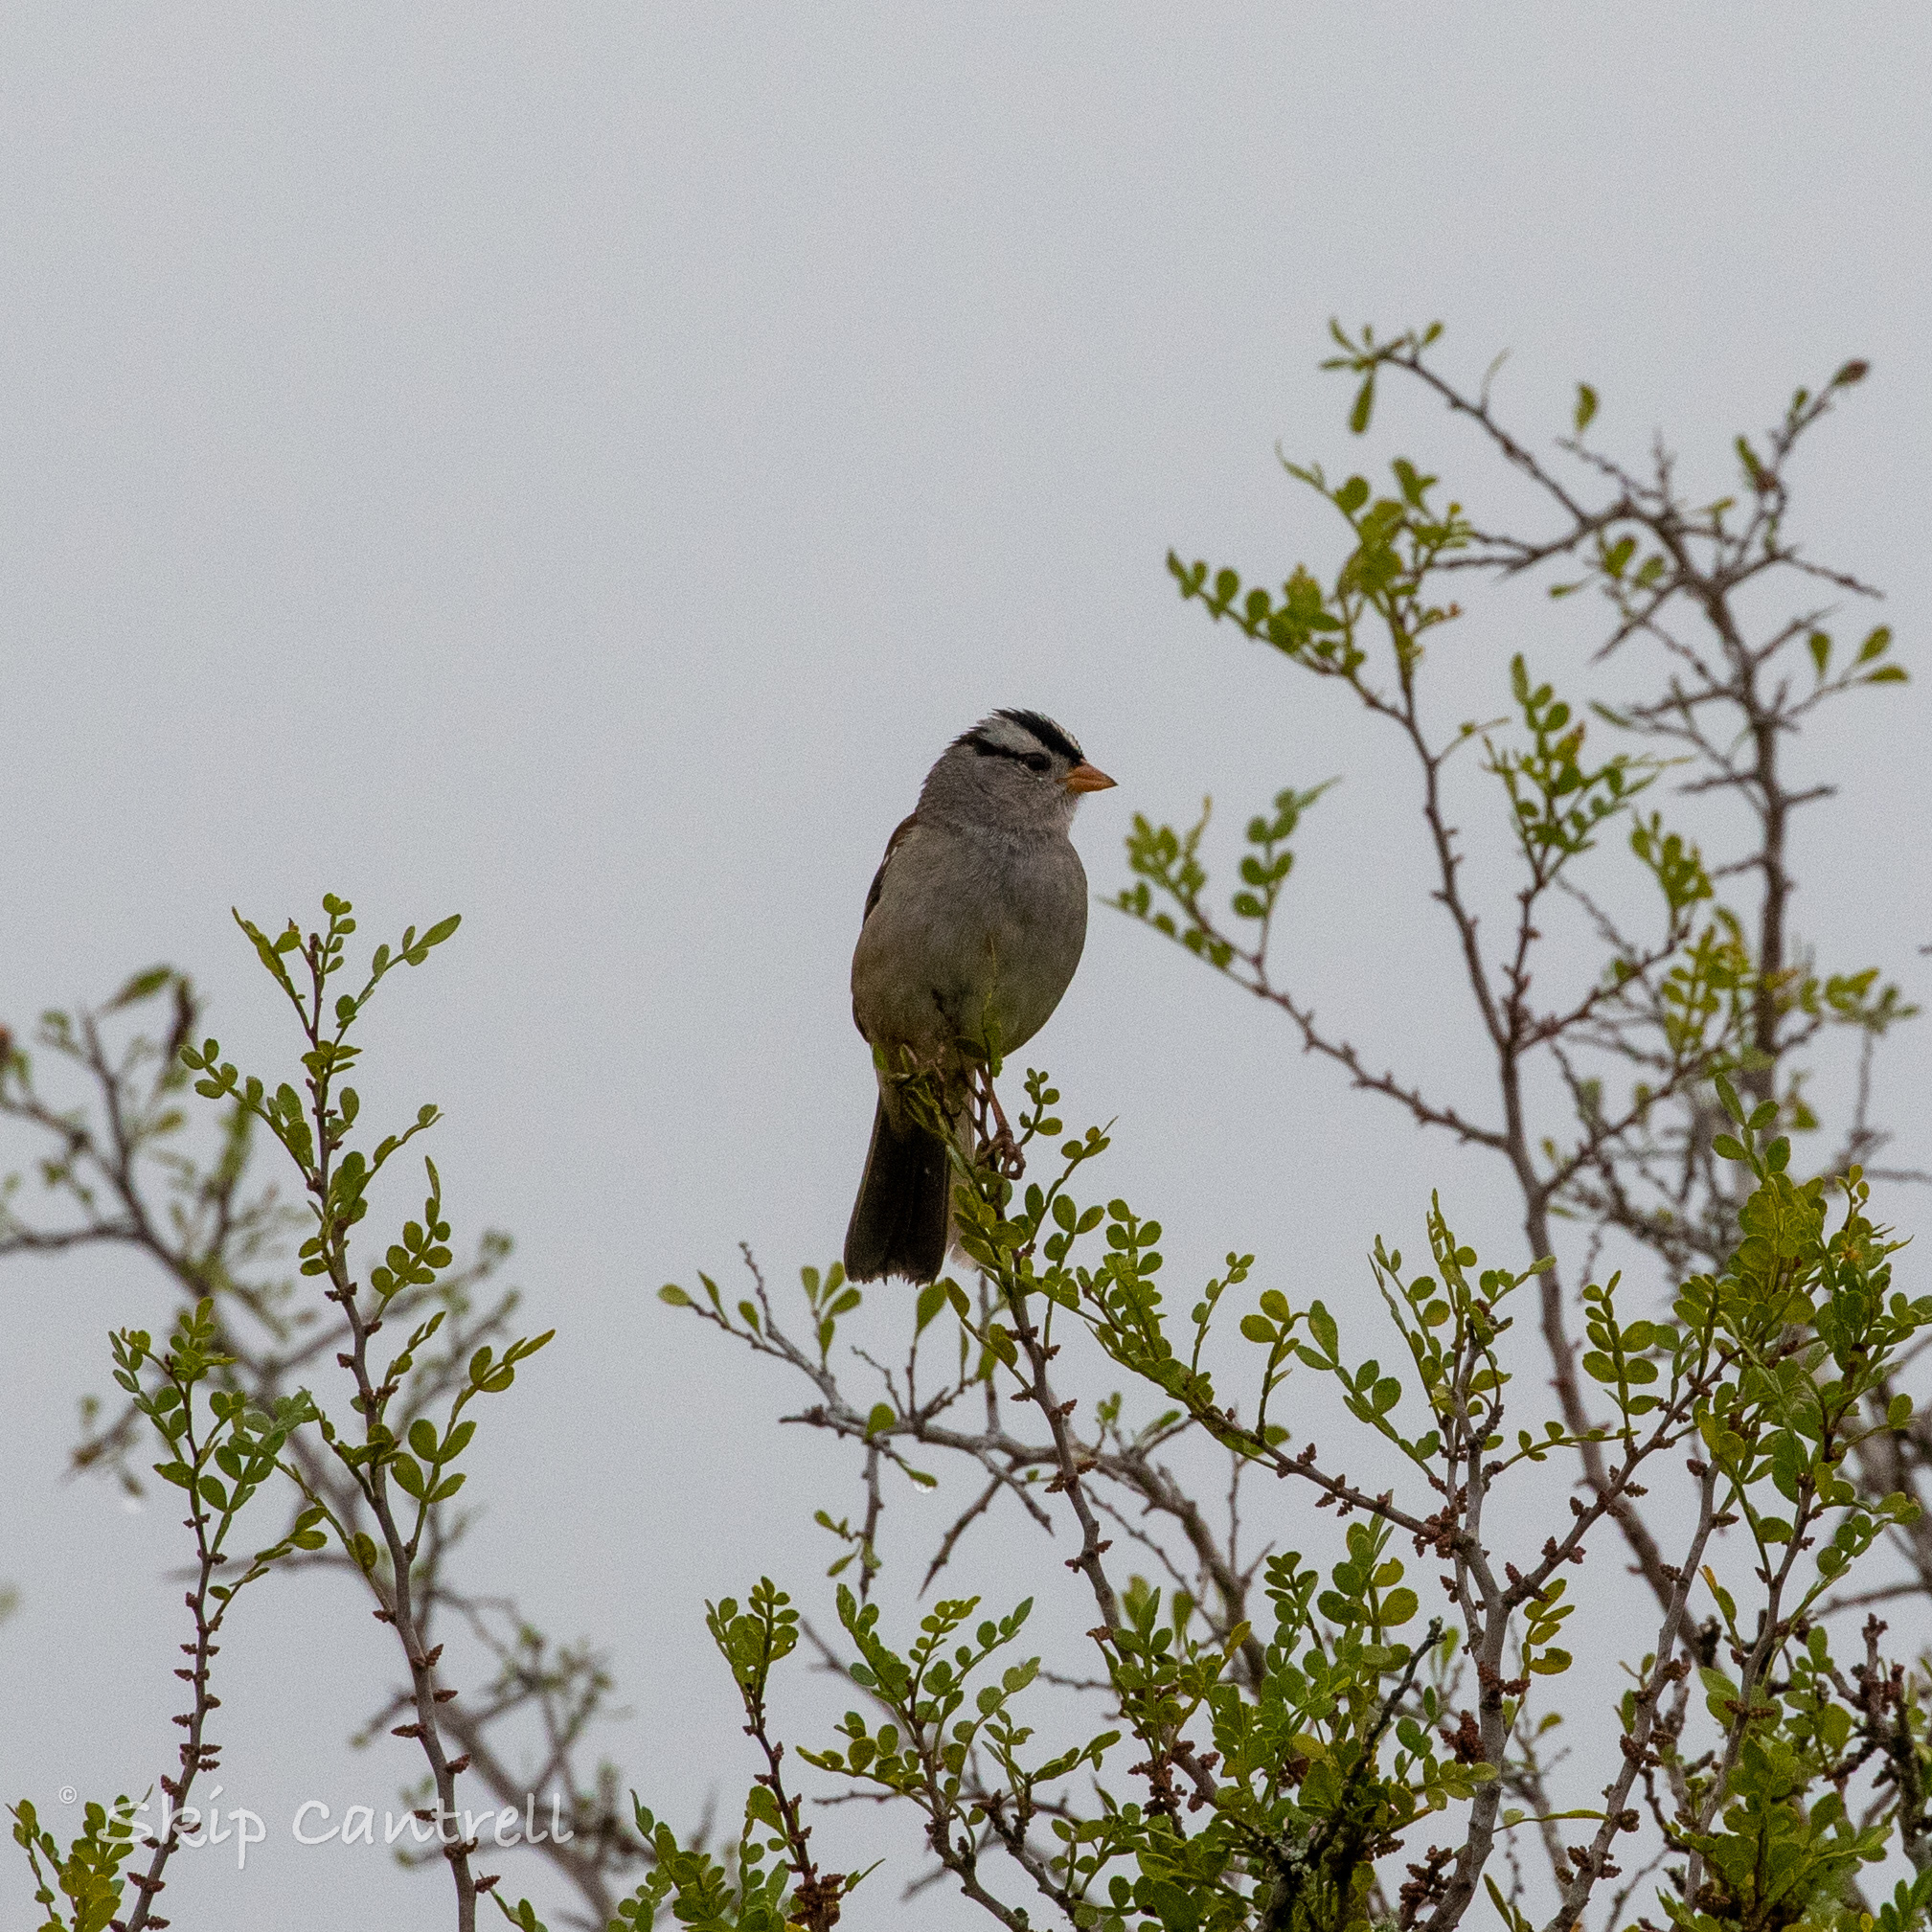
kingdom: Animalia
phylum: Chordata
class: Aves
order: Passeriformes
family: Passerellidae
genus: Zonotrichia
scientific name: Zonotrichia leucophrys
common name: White-crowned sparrow
